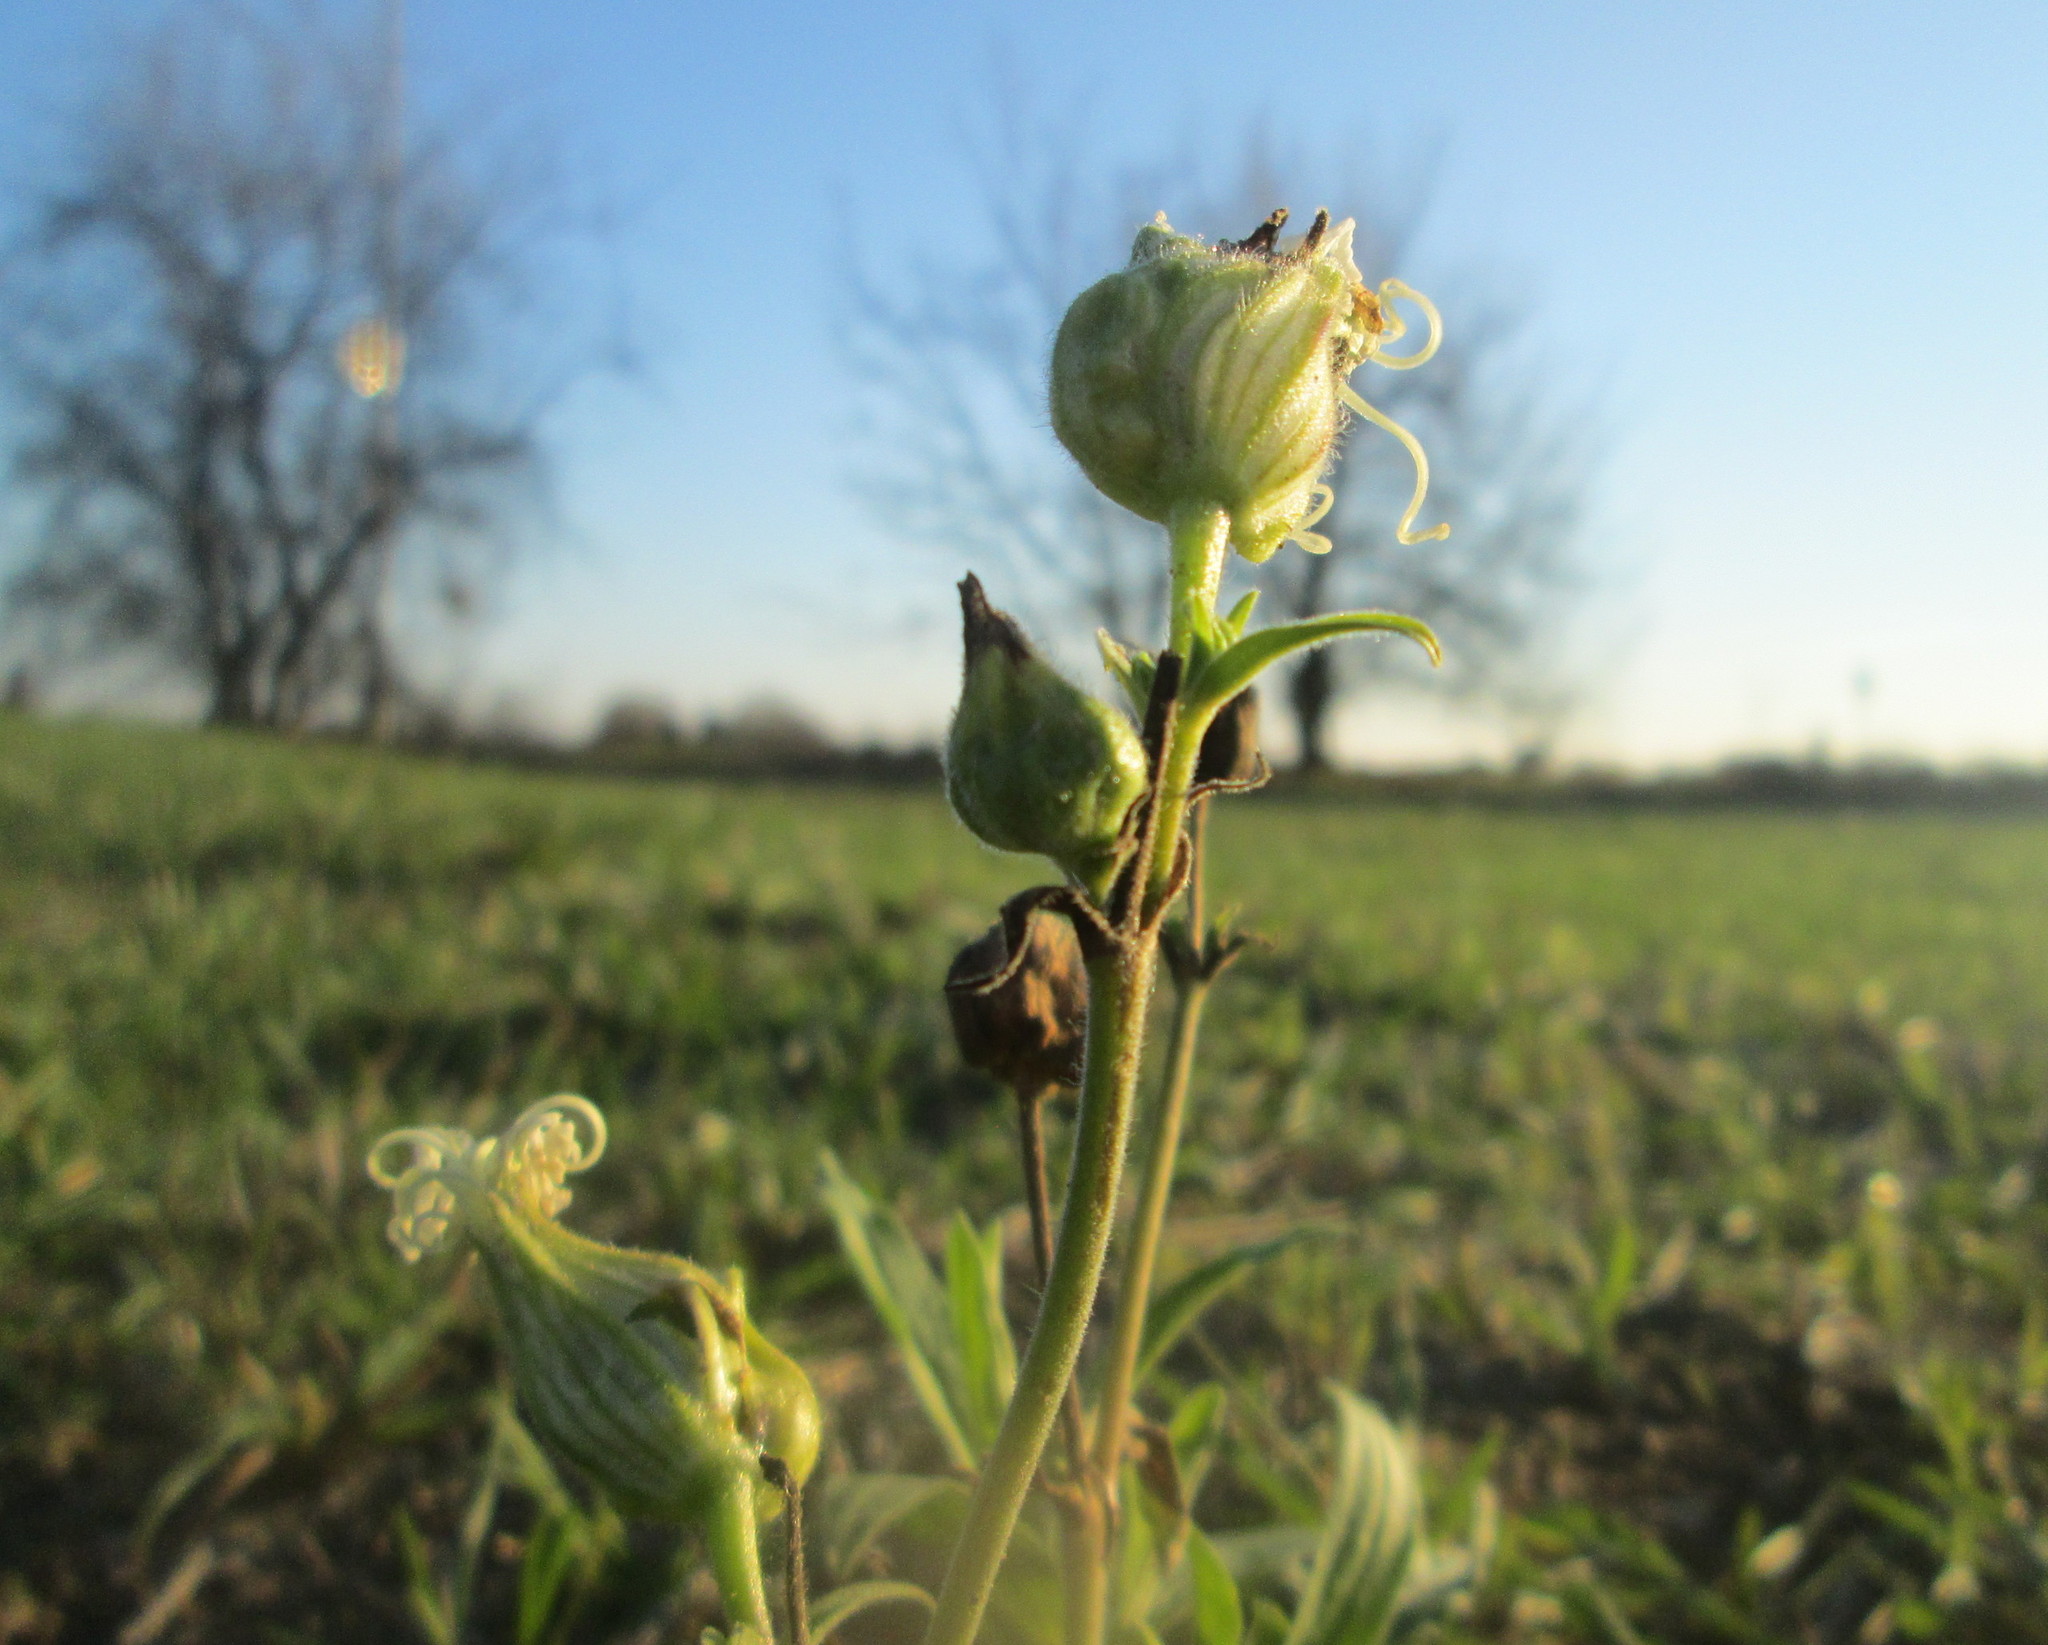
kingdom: Plantae
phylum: Tracheophyta
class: Magnoliopsida
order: Caryophyllales
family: Caryophyllaceae
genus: Silene
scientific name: Silene latifolia
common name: White campion
